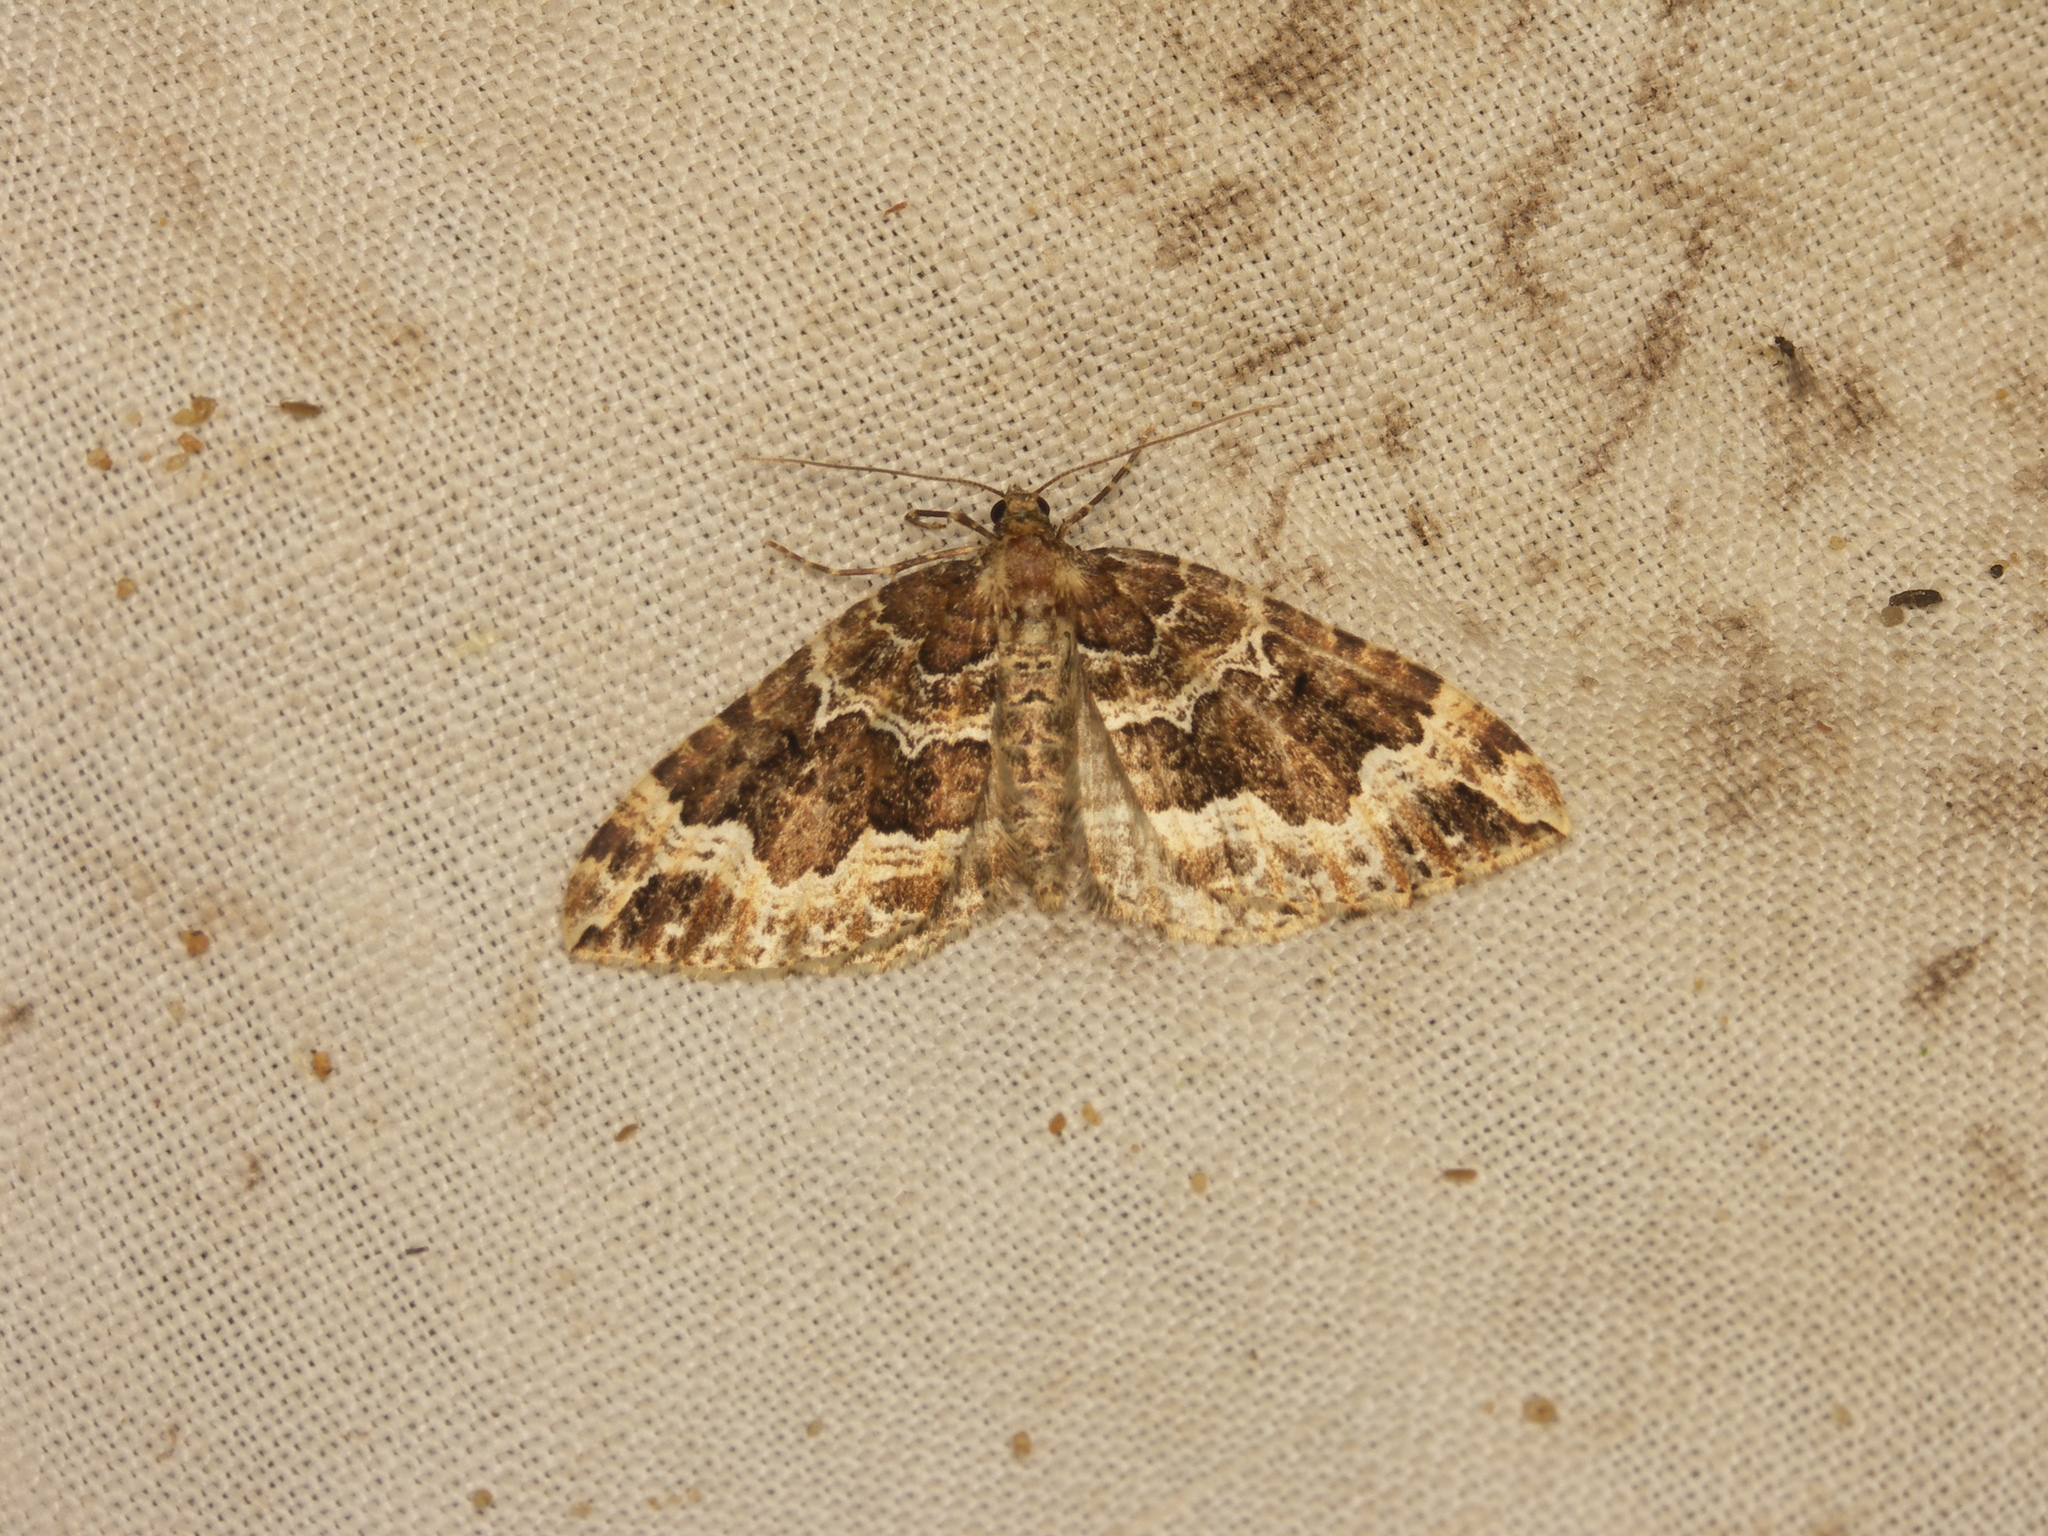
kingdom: Animalia
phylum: Arthropoda
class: Insecta
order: Lepidoptera
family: Geometridae
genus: Lampropteryx
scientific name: Lampropteryx suffumata
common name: Water carpet
